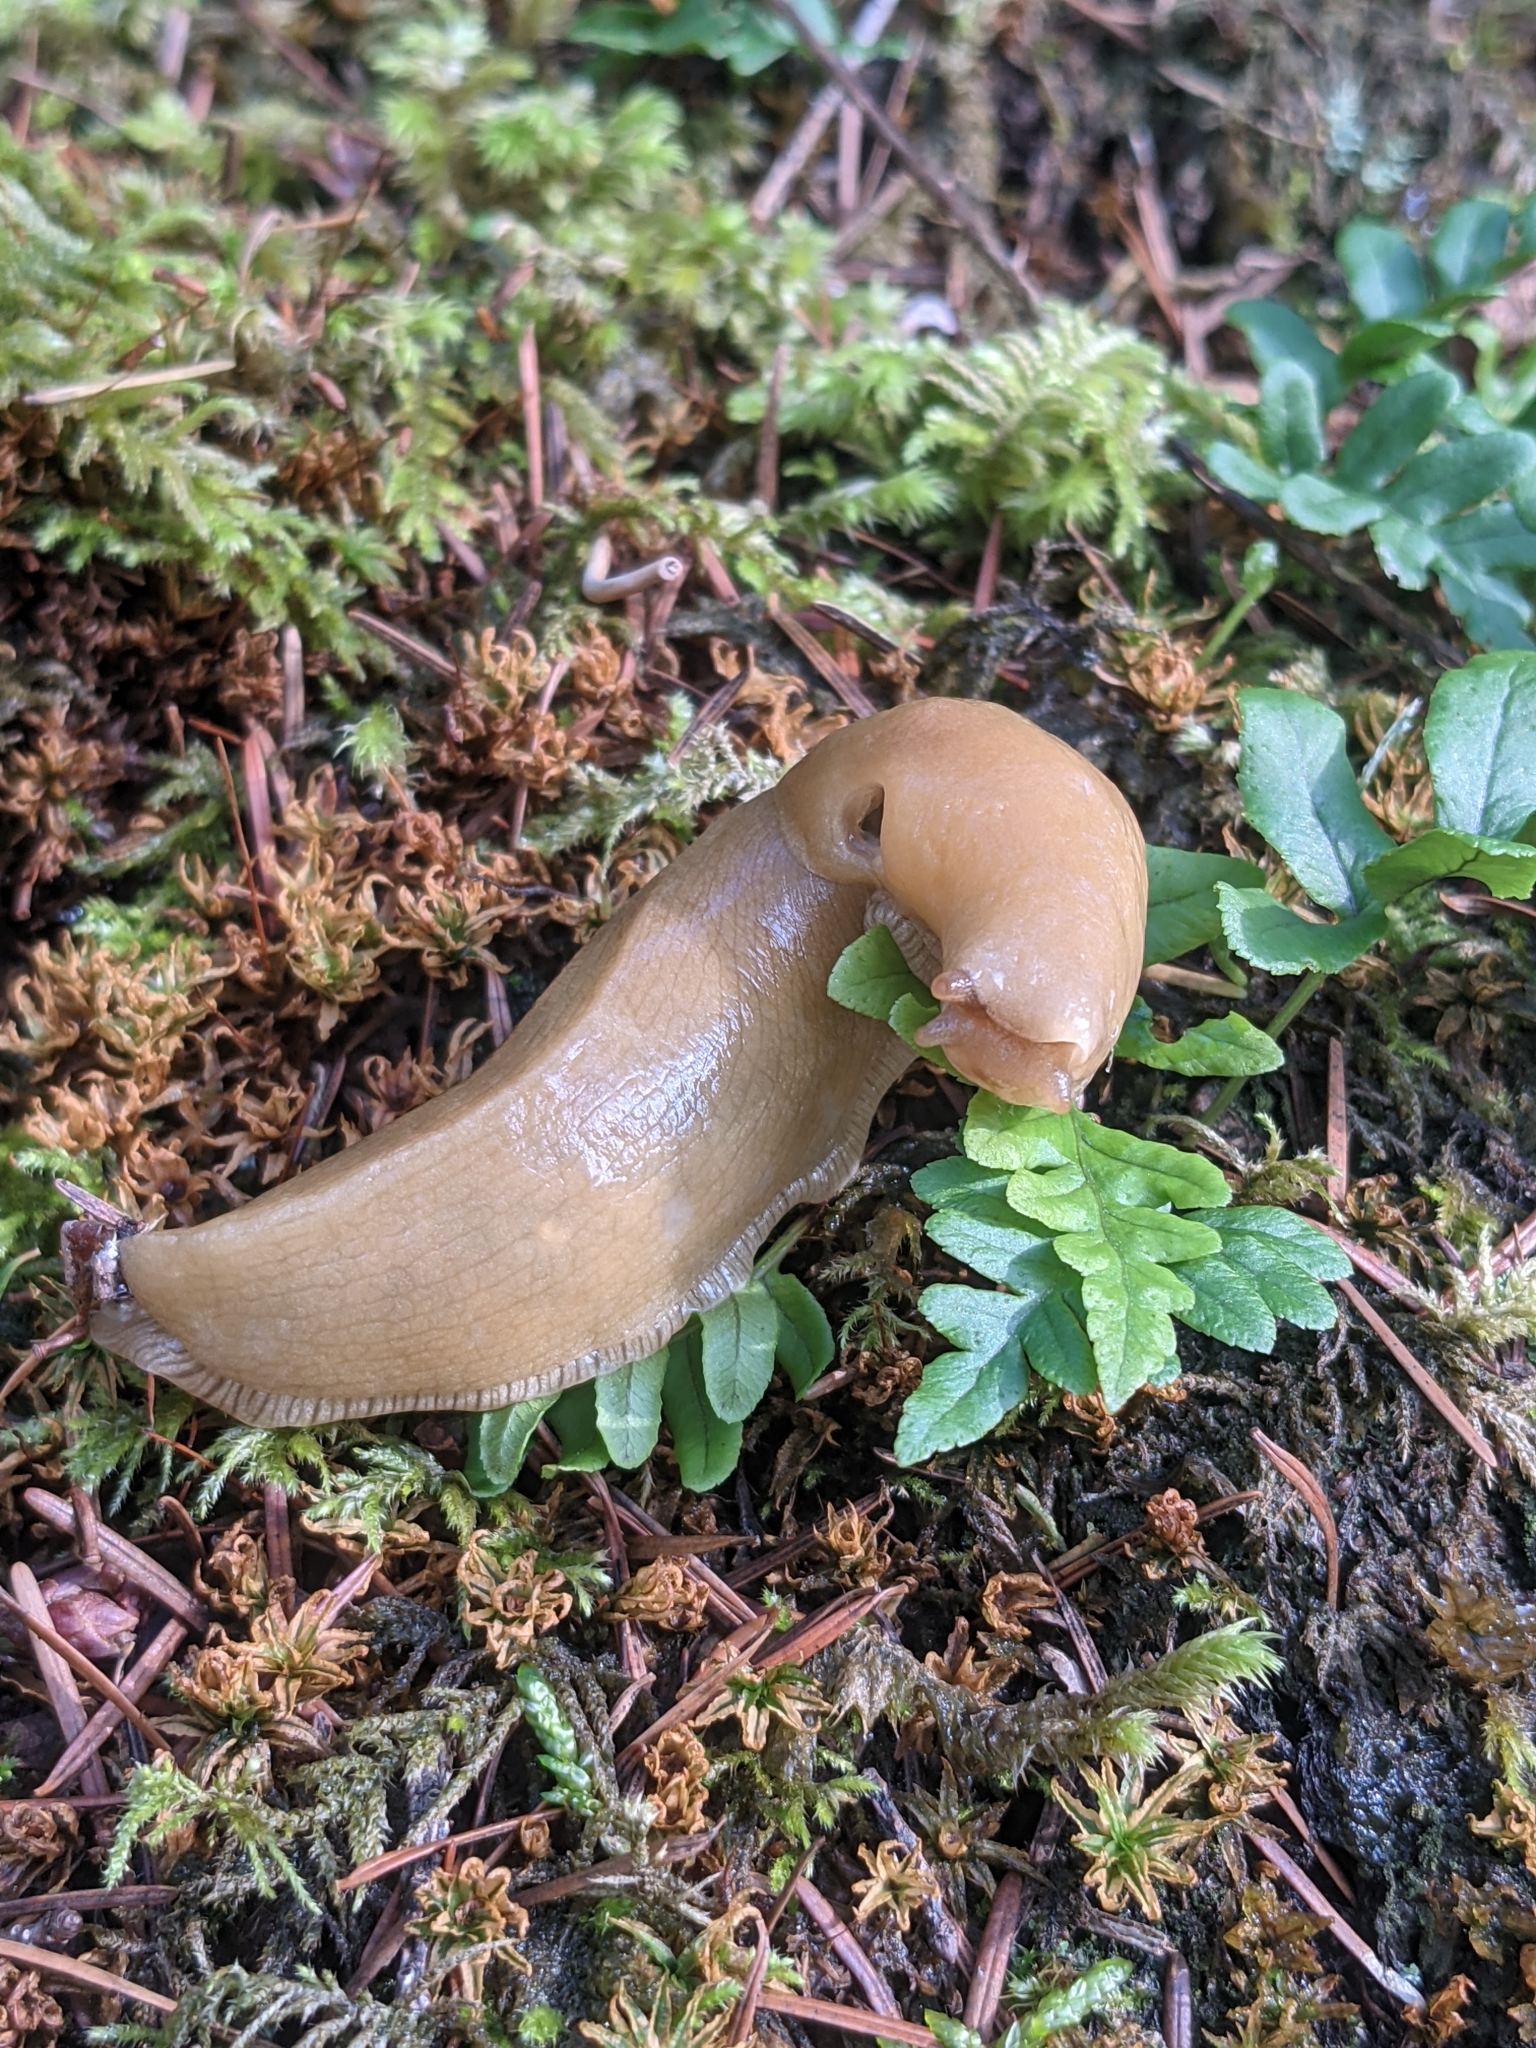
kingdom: Animalia
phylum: Mollusca
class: Gastropoda
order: Stylommatophora
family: Ariolimacidae
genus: Ariolimax
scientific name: Ariolimax columbianus
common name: Pacific banana slug
